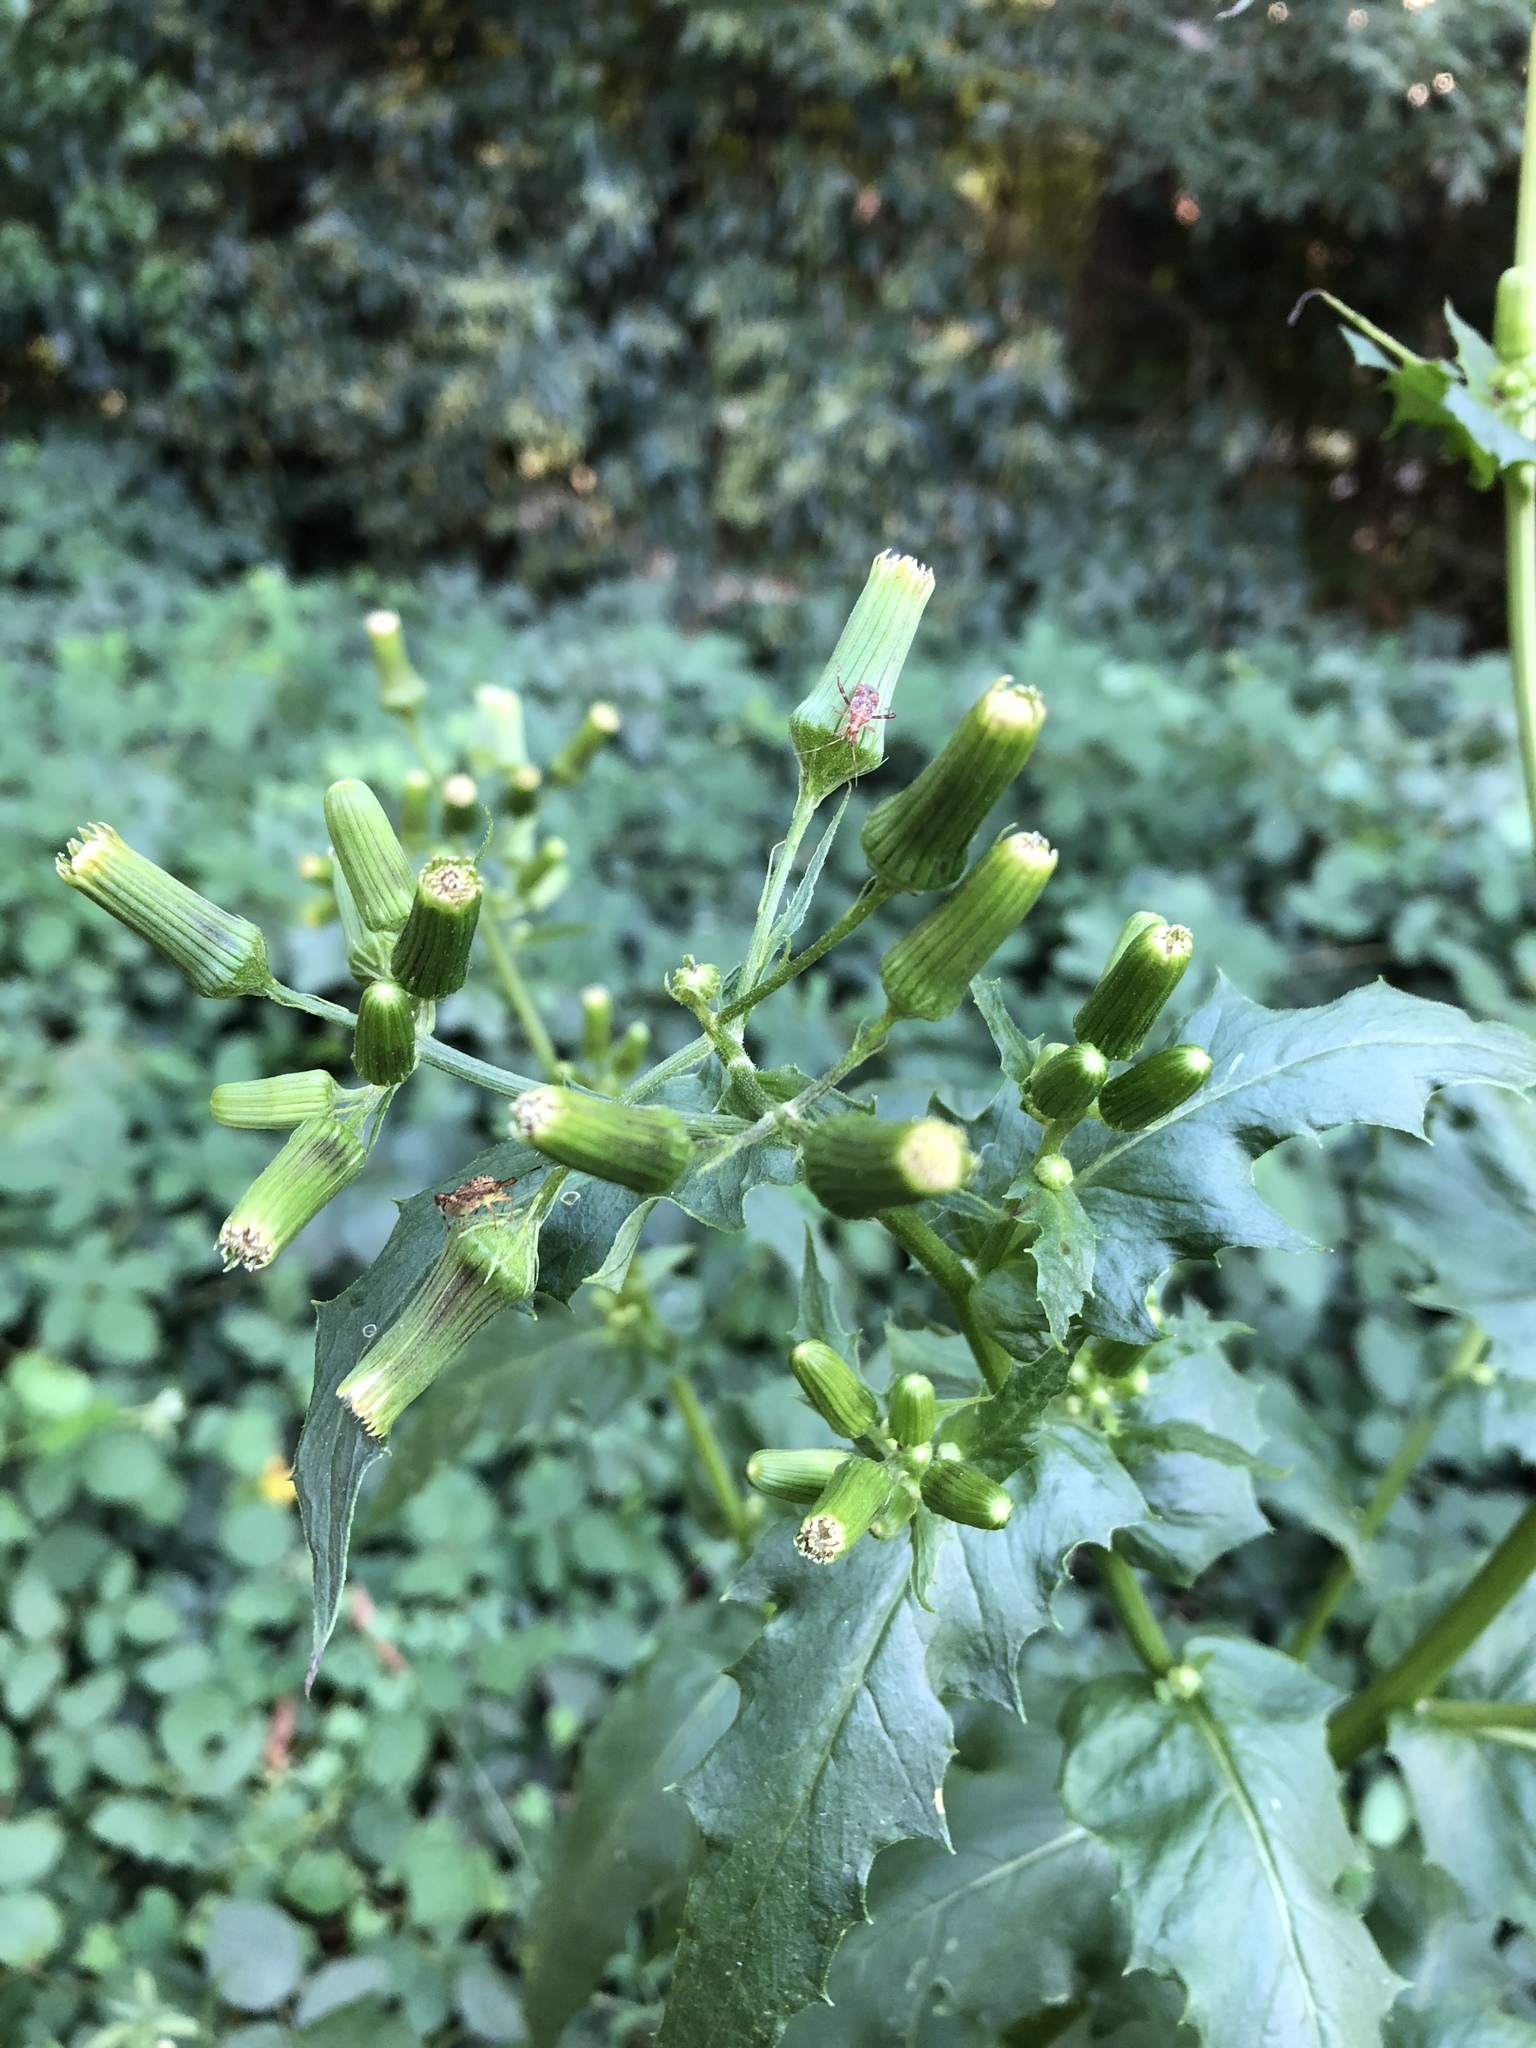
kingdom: Plantae
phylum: Tracheophyta
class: Magnoliopsida
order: Asterales
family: Asteraceae
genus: Erechtites
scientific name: Erechtites hieraciifolius
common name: American burnweed
